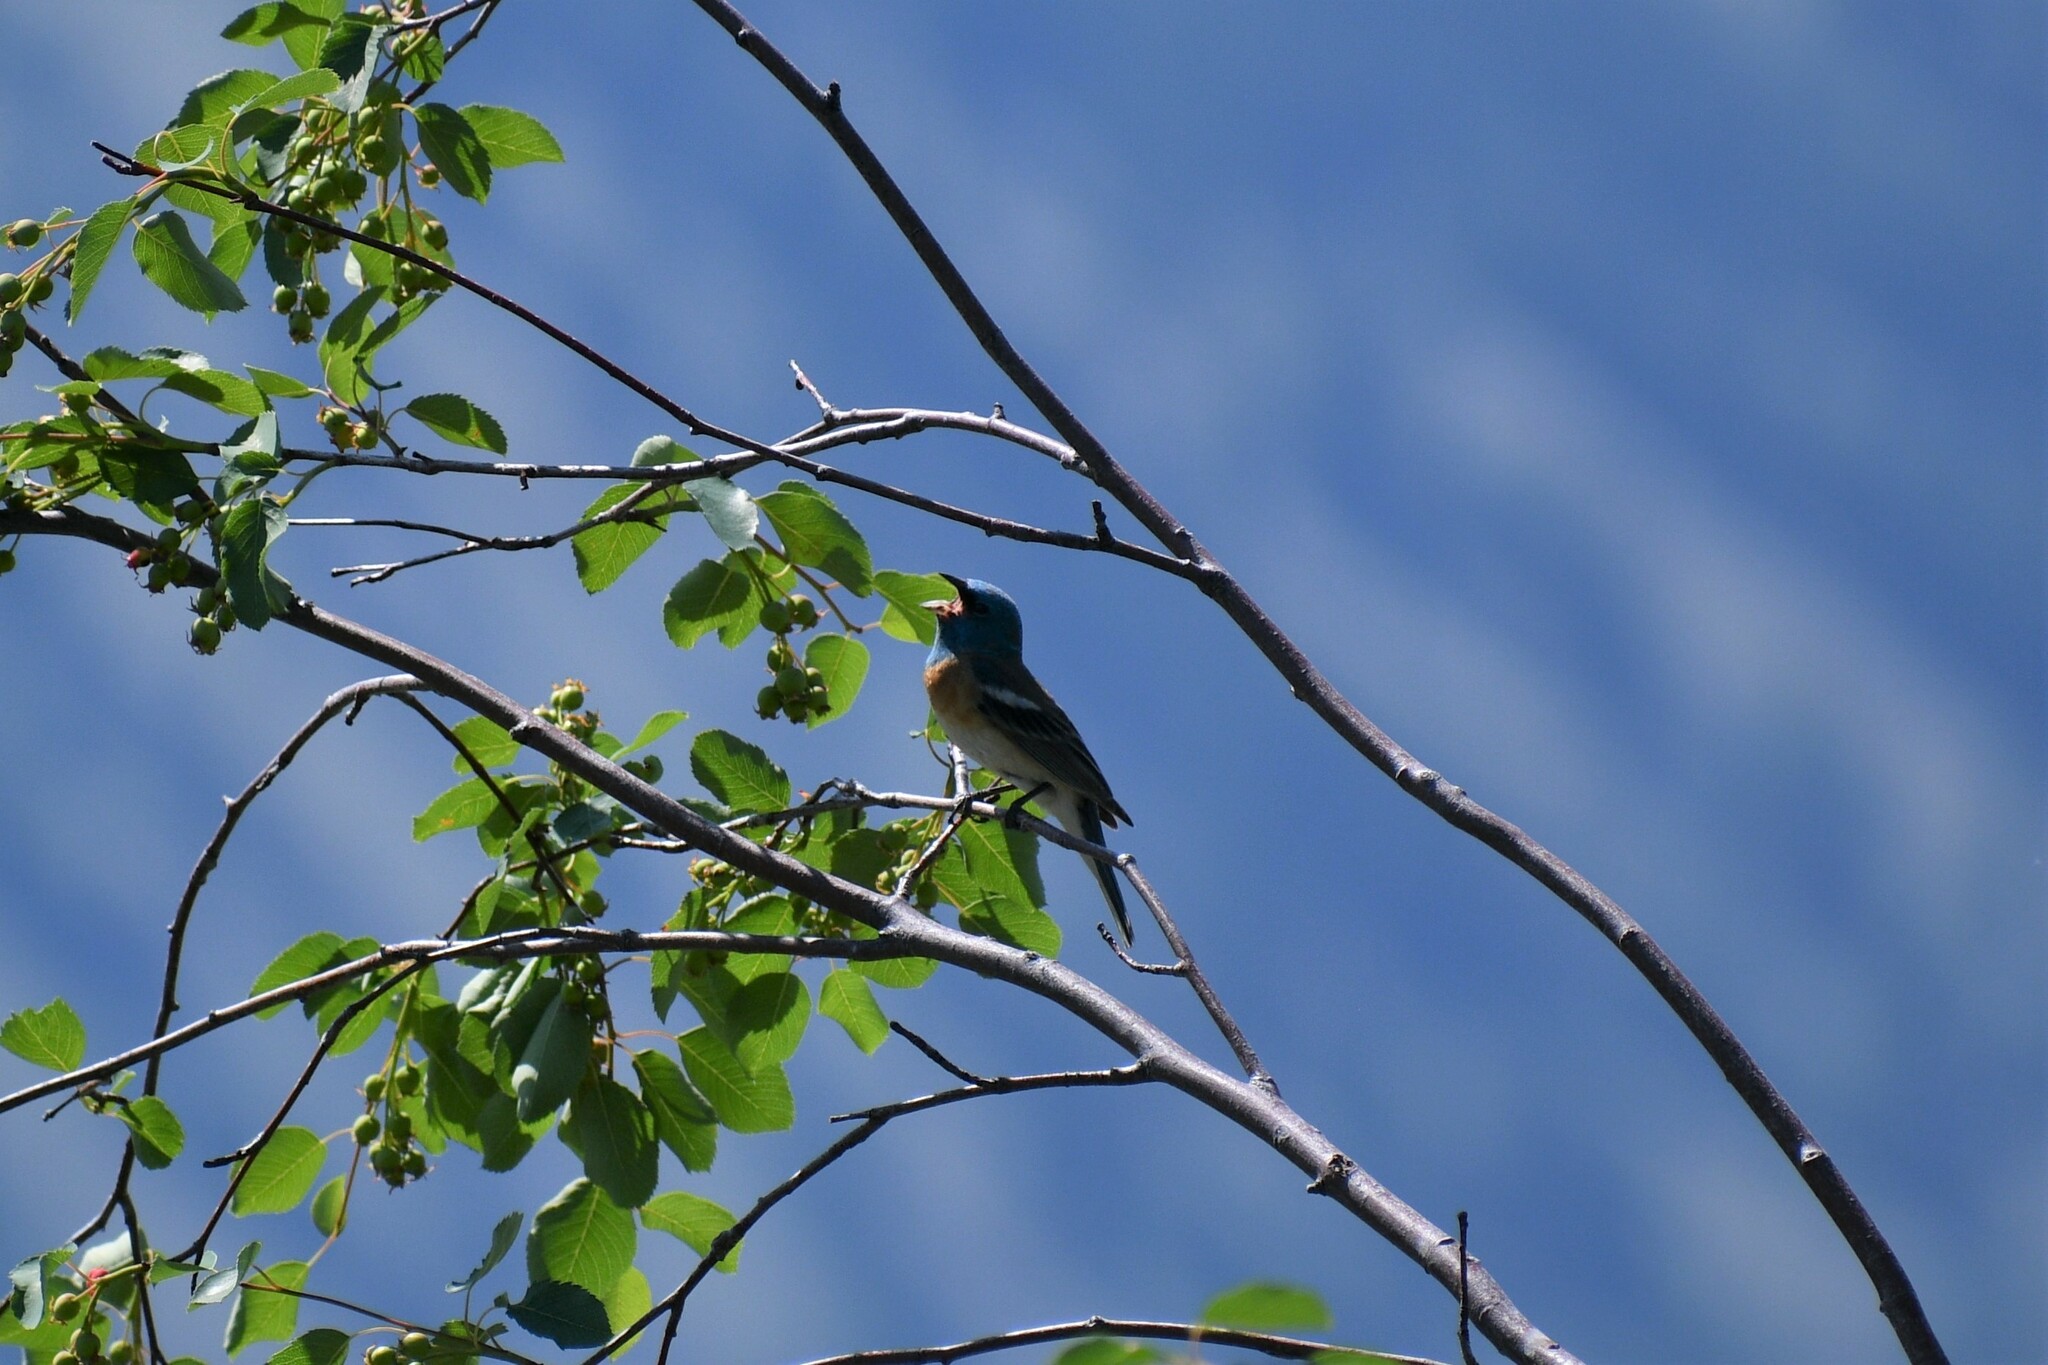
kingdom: Animalia
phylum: Chordata
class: Aves
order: Passeriformes
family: Cardinalidae
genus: Passerina
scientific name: Passerina amoena
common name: Lazuli bunting
